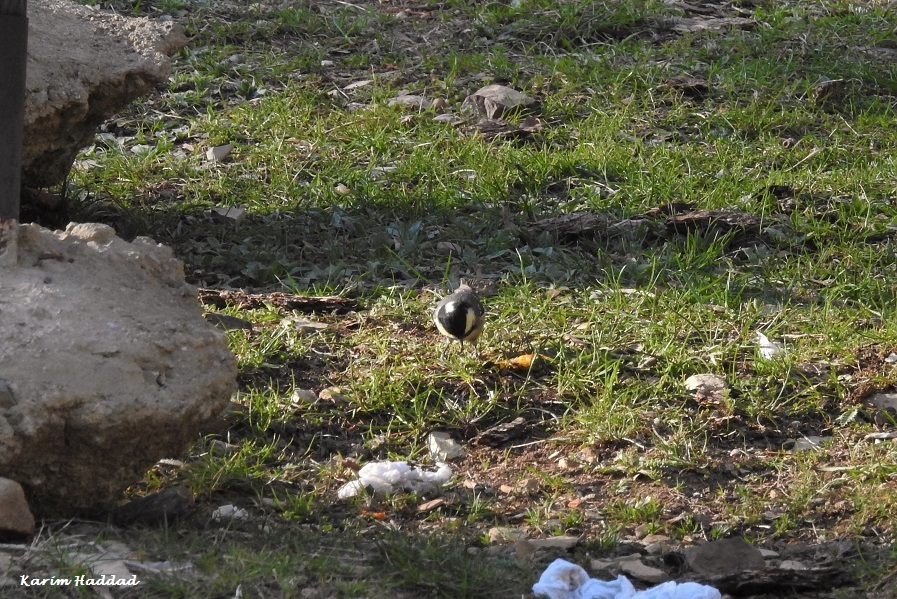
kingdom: Animalia
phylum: Chordata
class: Aves
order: Passeriformes
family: Paridae
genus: Periparus
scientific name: Periparus ater
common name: Coal tit
